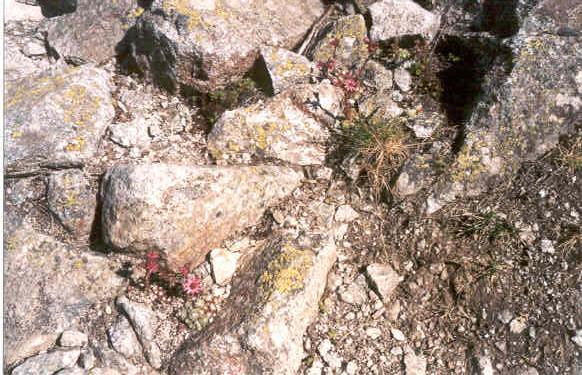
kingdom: Plantae
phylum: Tracheophyta
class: Magnoliopsida
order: Saxifragales
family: Crassulaceae
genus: Sempervivum
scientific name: Sempervivum arachnoideum
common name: Cobweb house-leek
